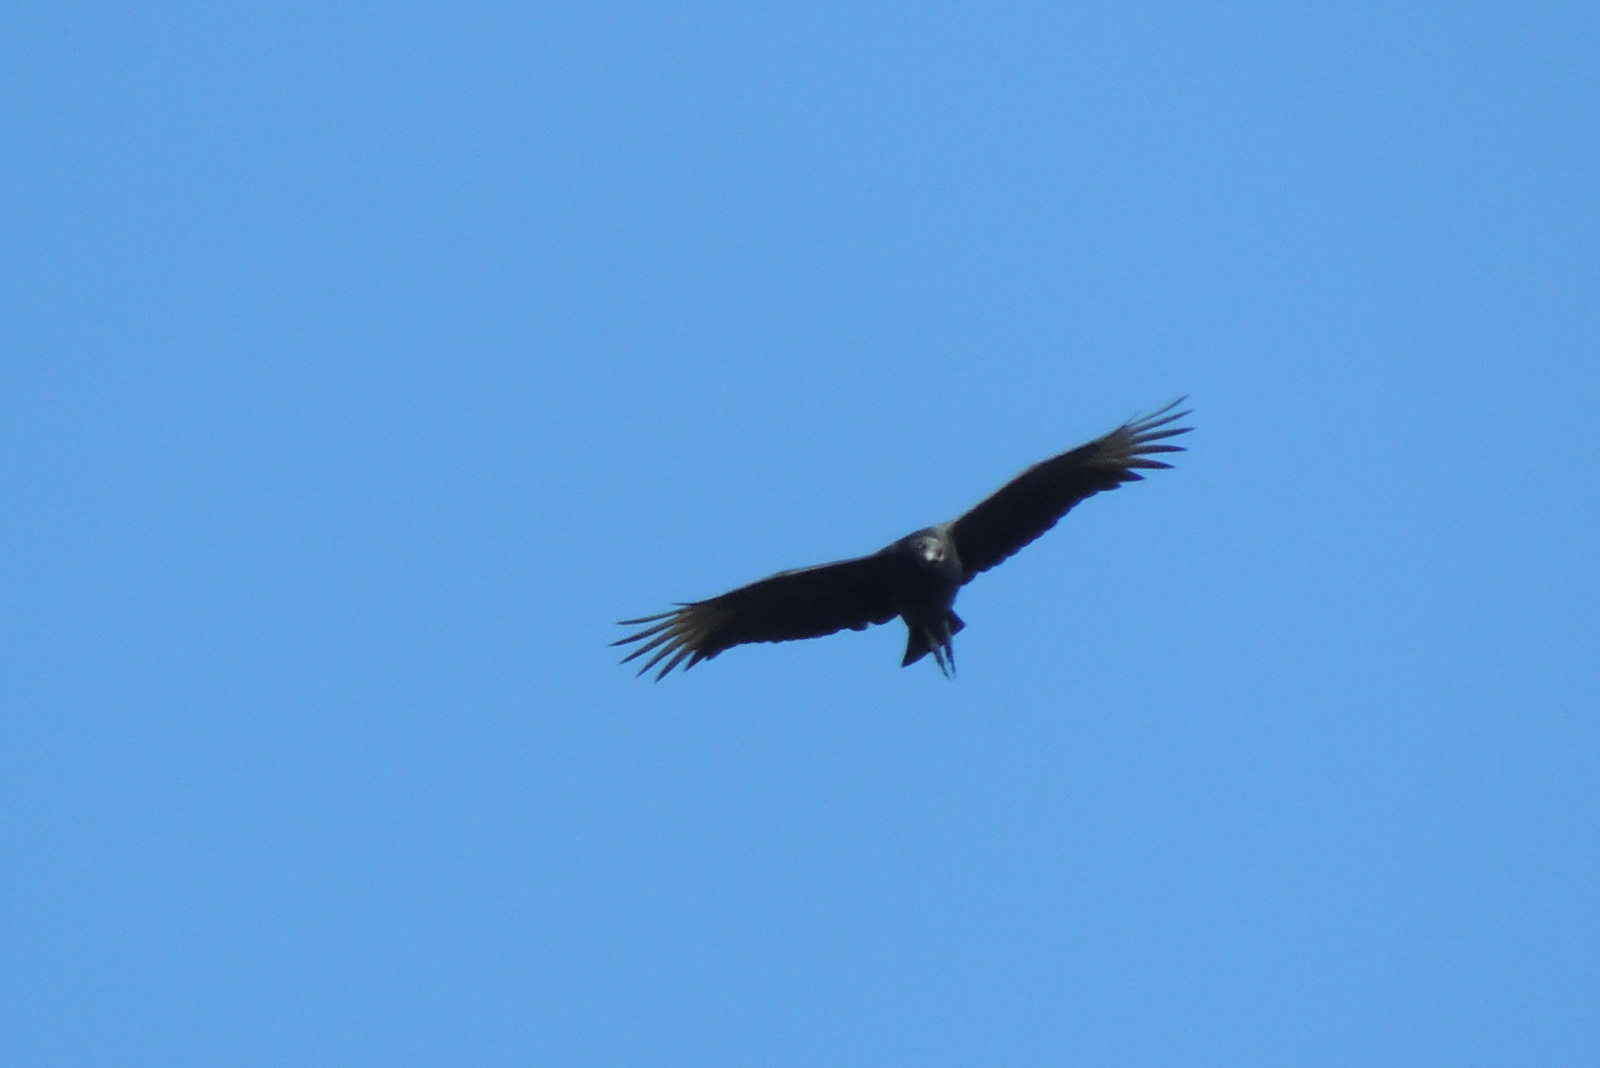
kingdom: Animalia
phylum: Chordata
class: Aves
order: Accipitriformes
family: Cathartidae
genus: Coragyps
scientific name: Coragyps atratus
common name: Black vulture
